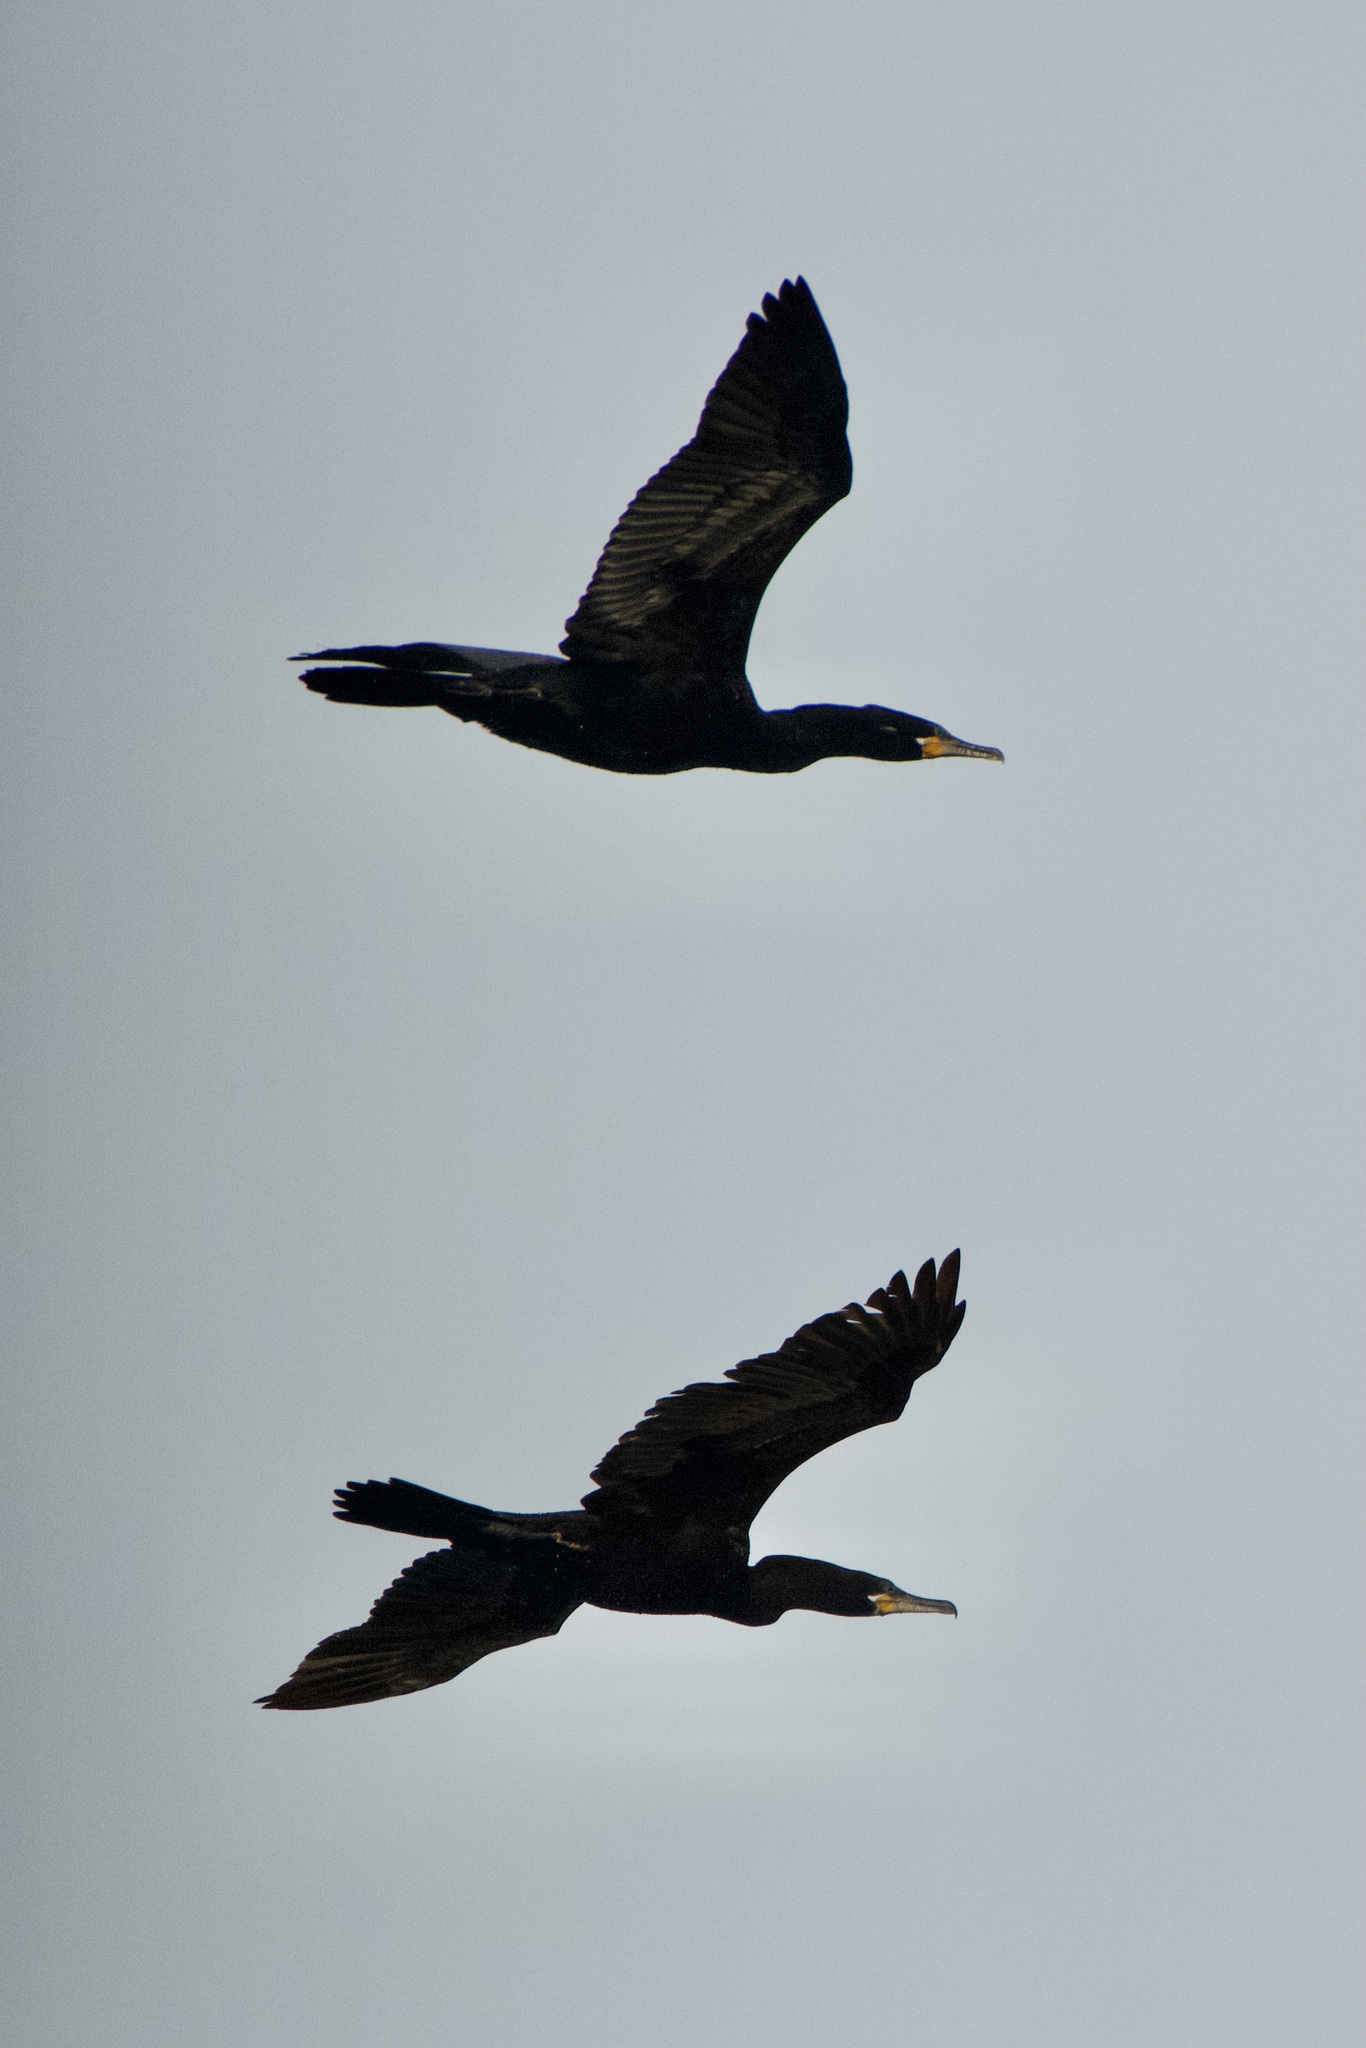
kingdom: Animalia
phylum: Chordata
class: Aves
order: Suliformes
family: Phalacrocoracidae
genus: Phalacrocorax
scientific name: Phalacrocorax brasilianus
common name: Neotropic cormorant
